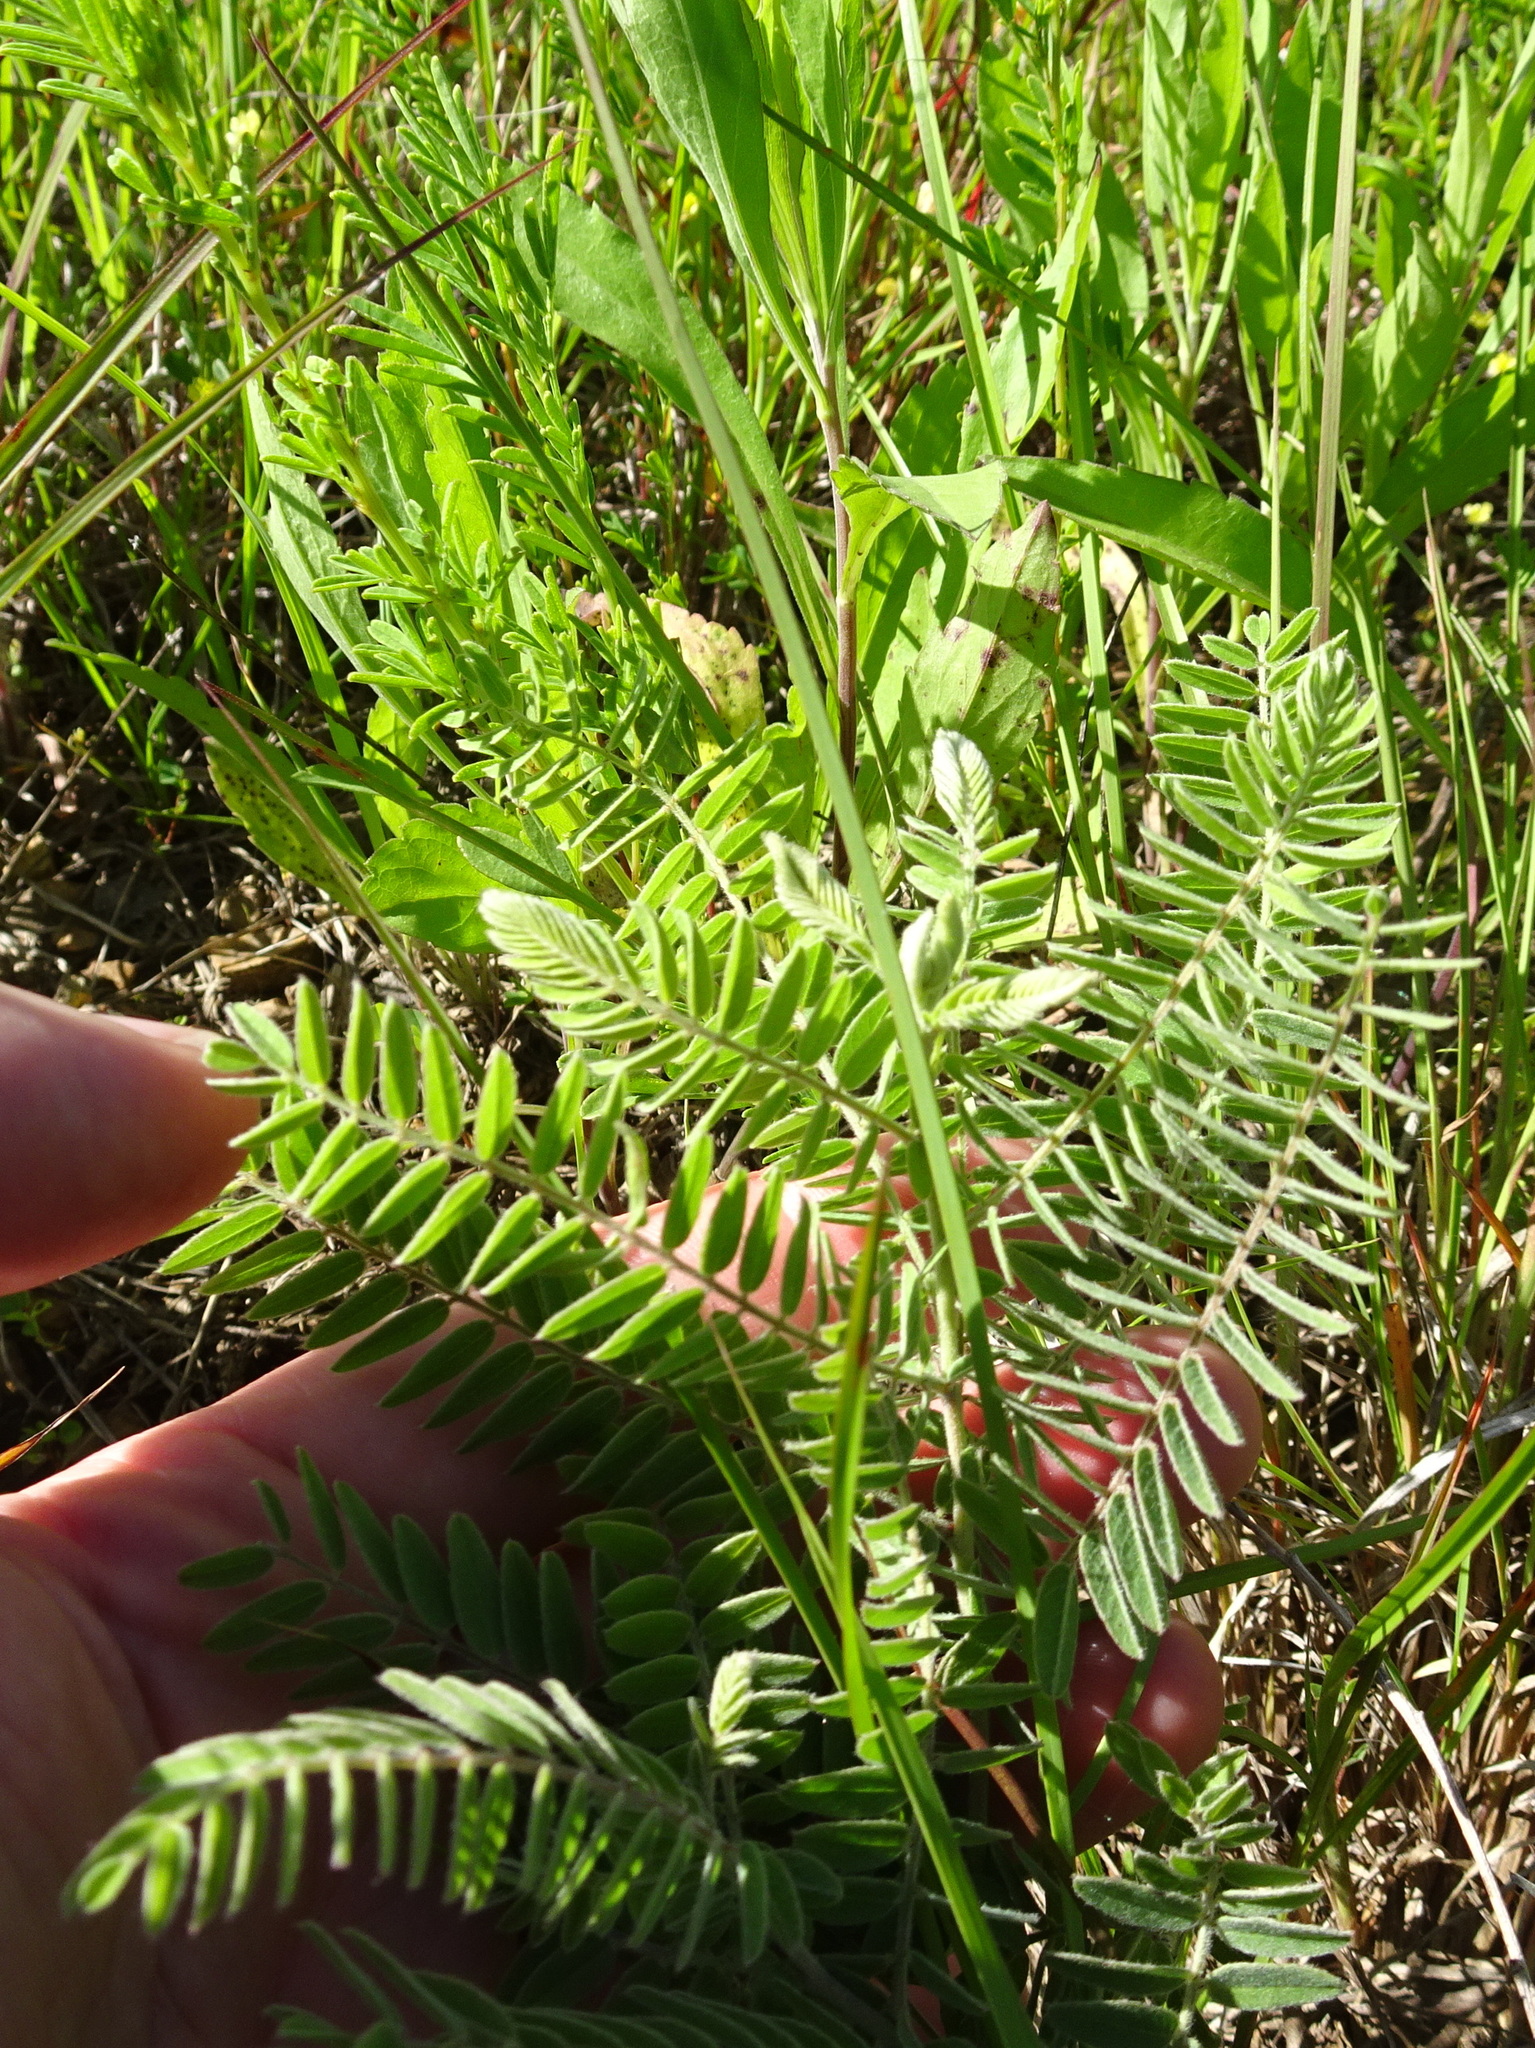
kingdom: Plantae
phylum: Tracheophyta
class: Magnoliopsida
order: Fabales
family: Fabaceae
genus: Amorpha
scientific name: Amorpha canescens
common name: Leadplant
